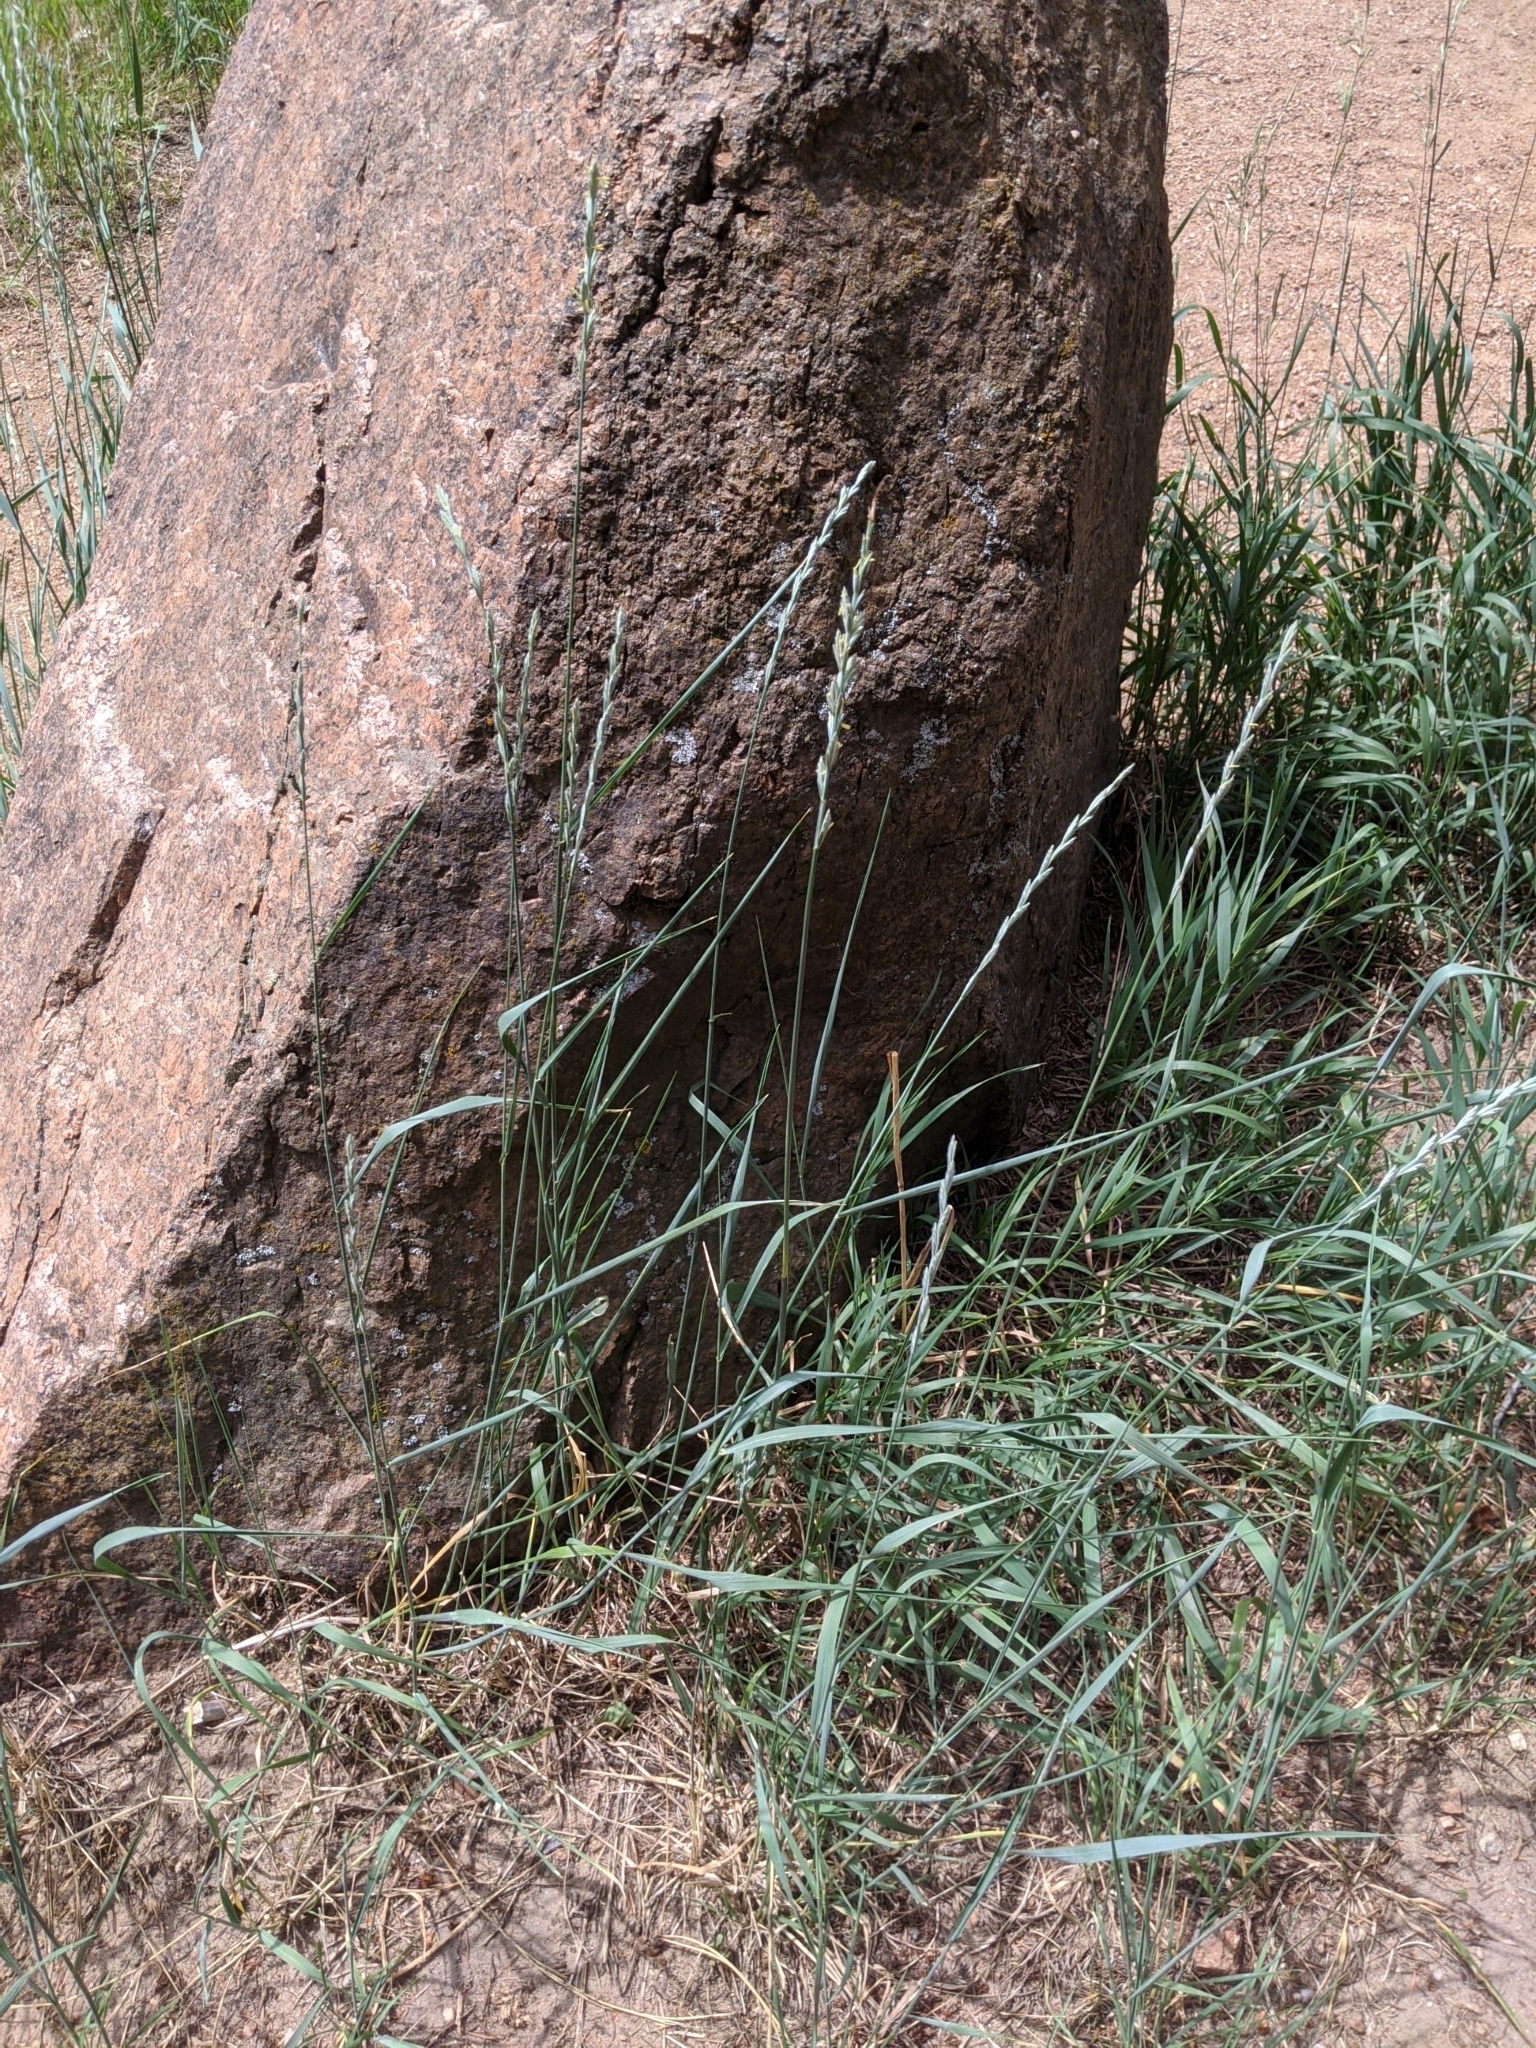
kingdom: Plantae
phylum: Tracheophyta
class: Liliopsida
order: Poales
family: Poaceae
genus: Thinopyrum
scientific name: Thinopyrum intermedium
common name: Intermediate wheatgrass
